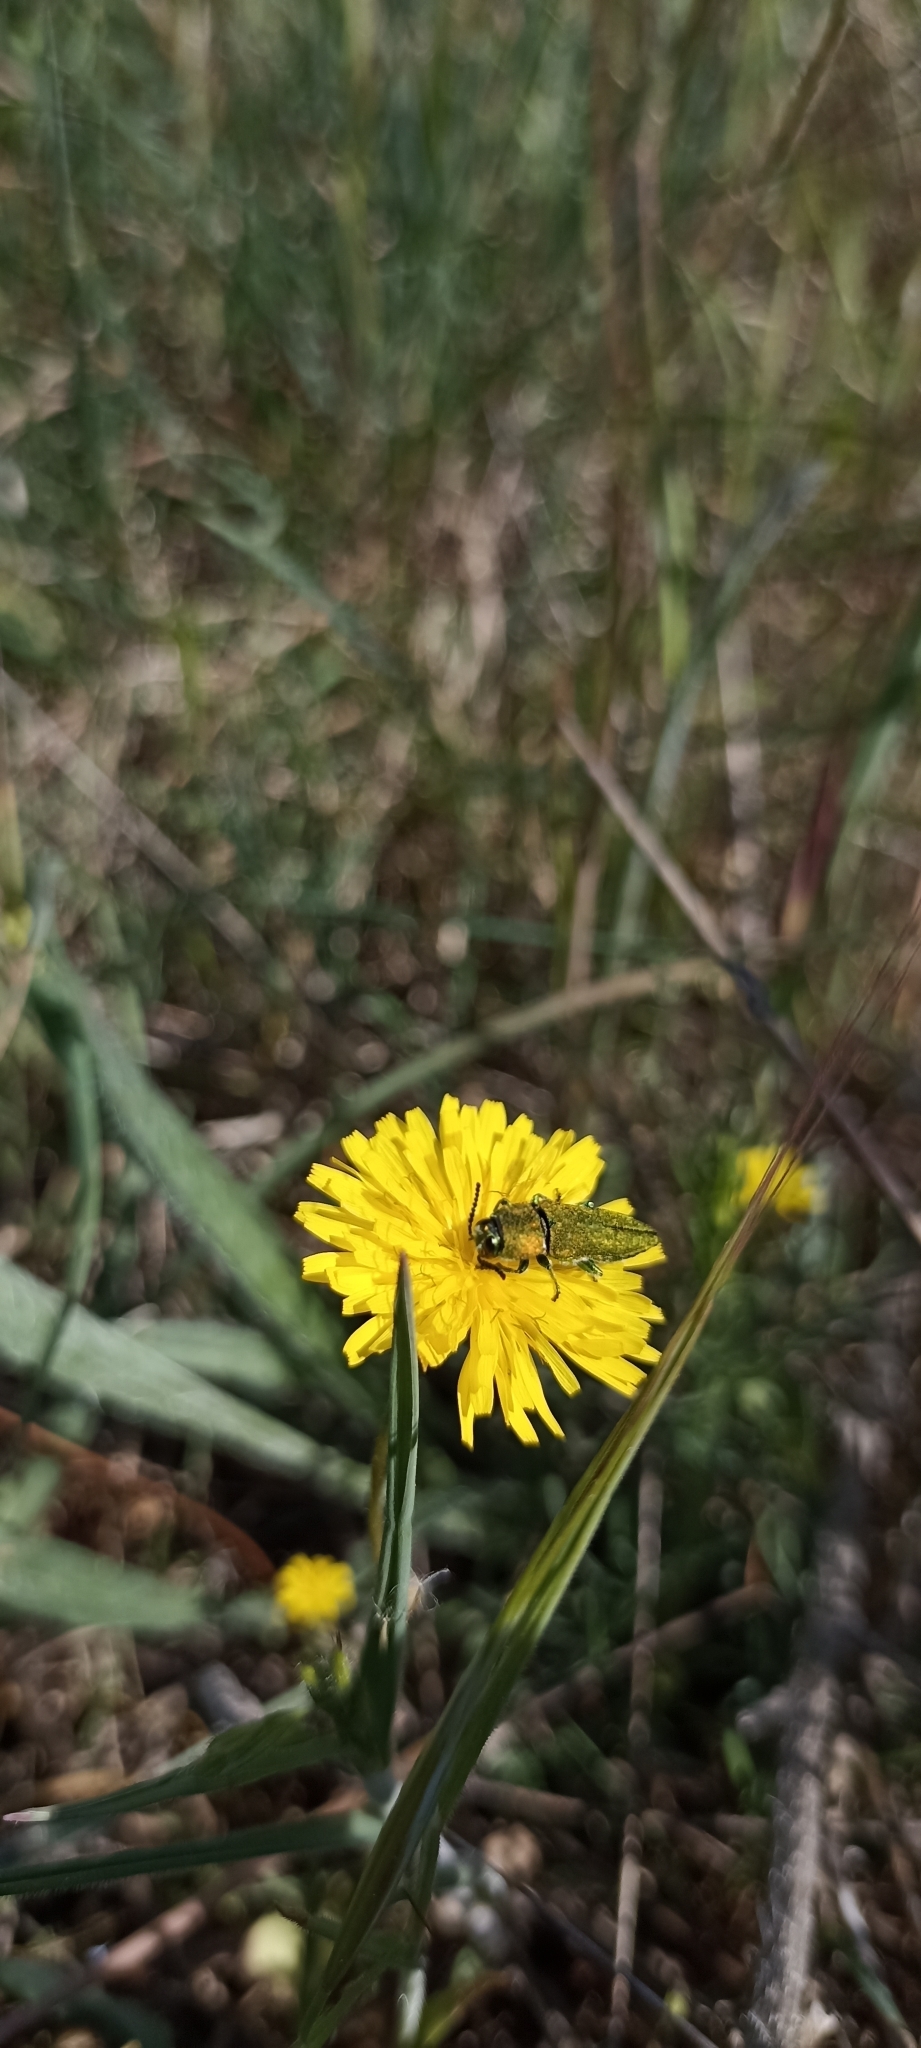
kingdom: Animalia
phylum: Arthropoda
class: Insecta
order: Coleoptera
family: Buprestidae
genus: Anthaxia
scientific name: Anthaxia hungarica
